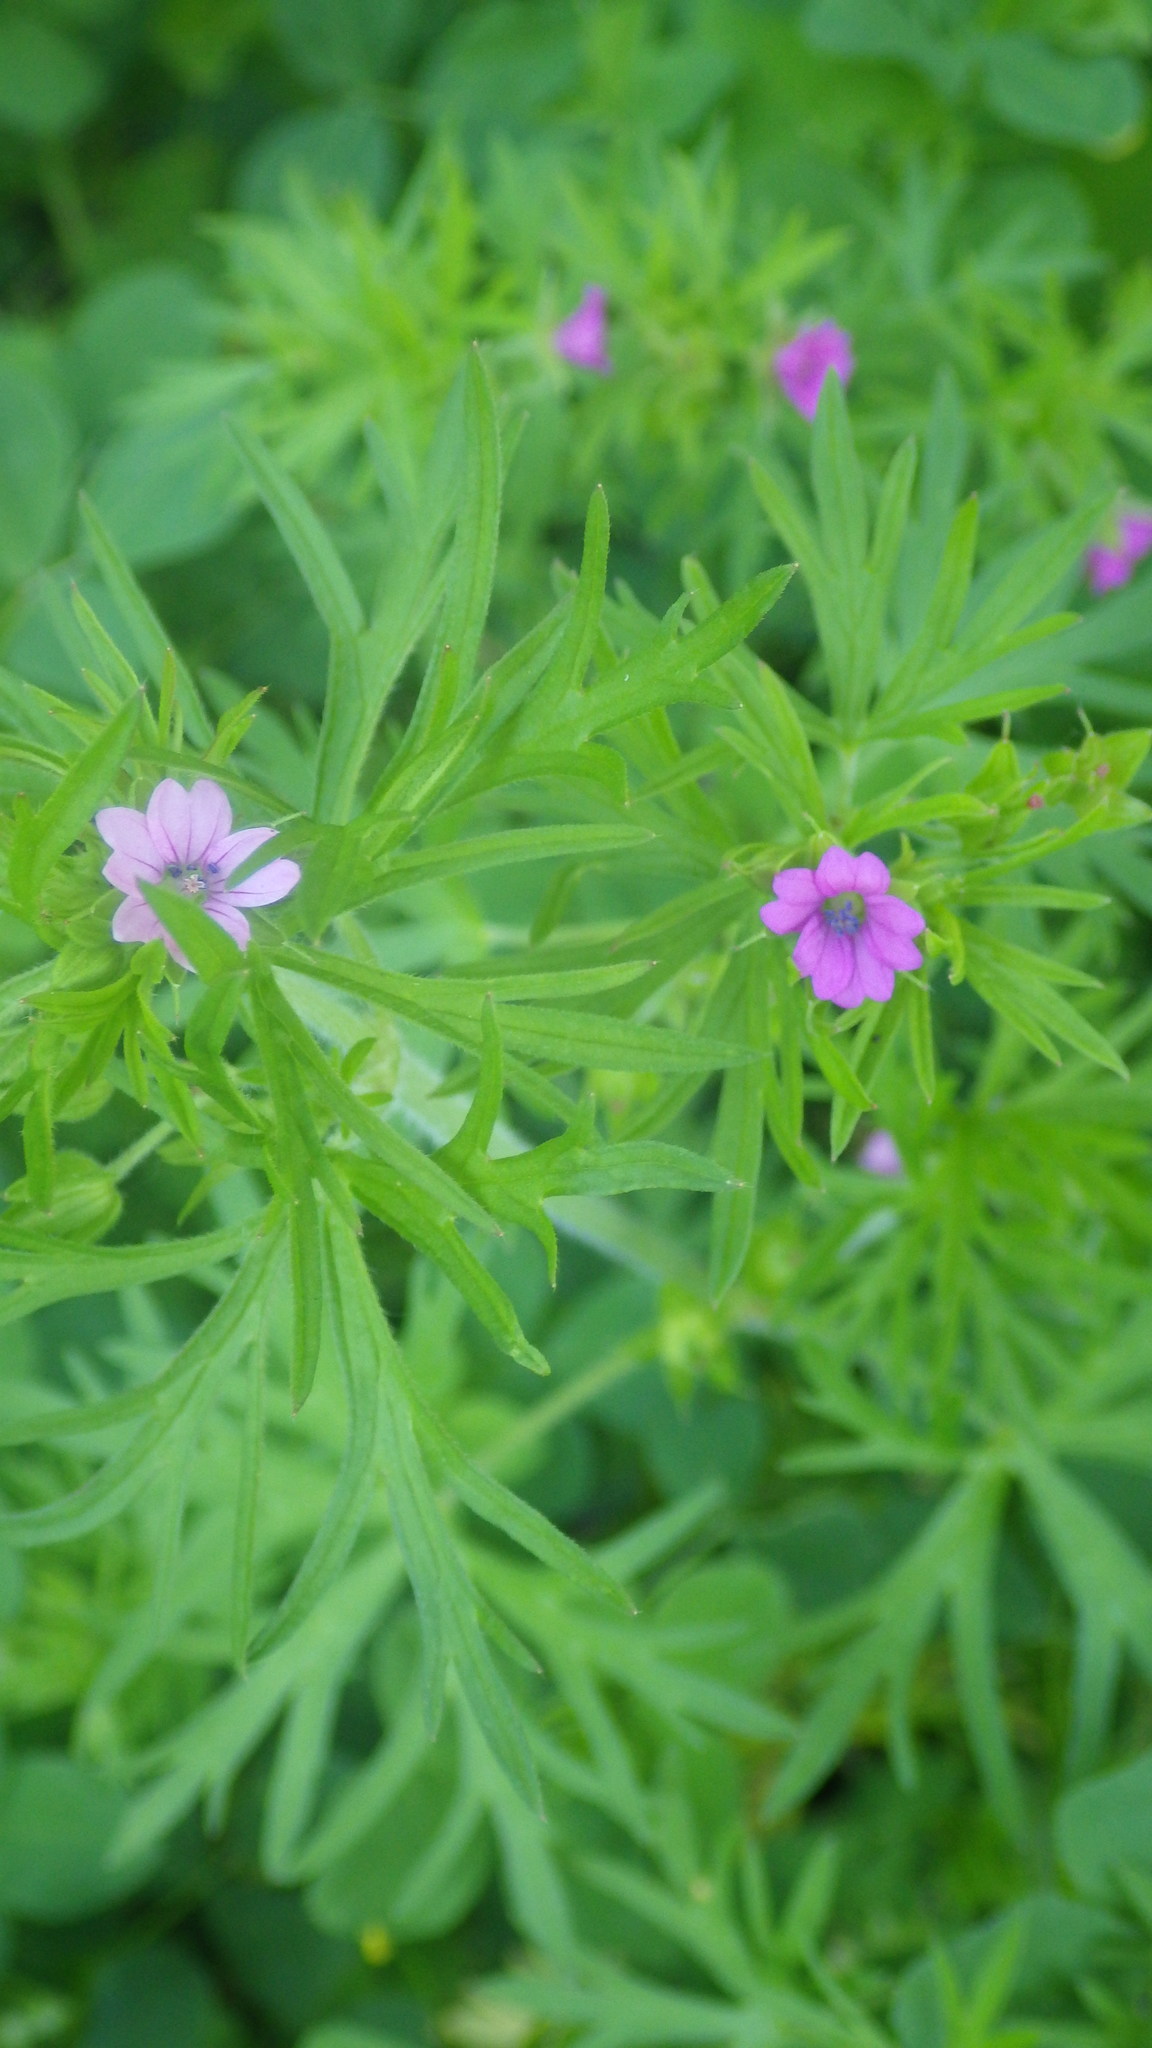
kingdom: Plantae
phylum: Tracheophyta
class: Magnoliopsida
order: Geraniales
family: Geraniaceae
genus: Geranium
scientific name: Geranium dissectum
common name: Cut-leaved crane's-bill
